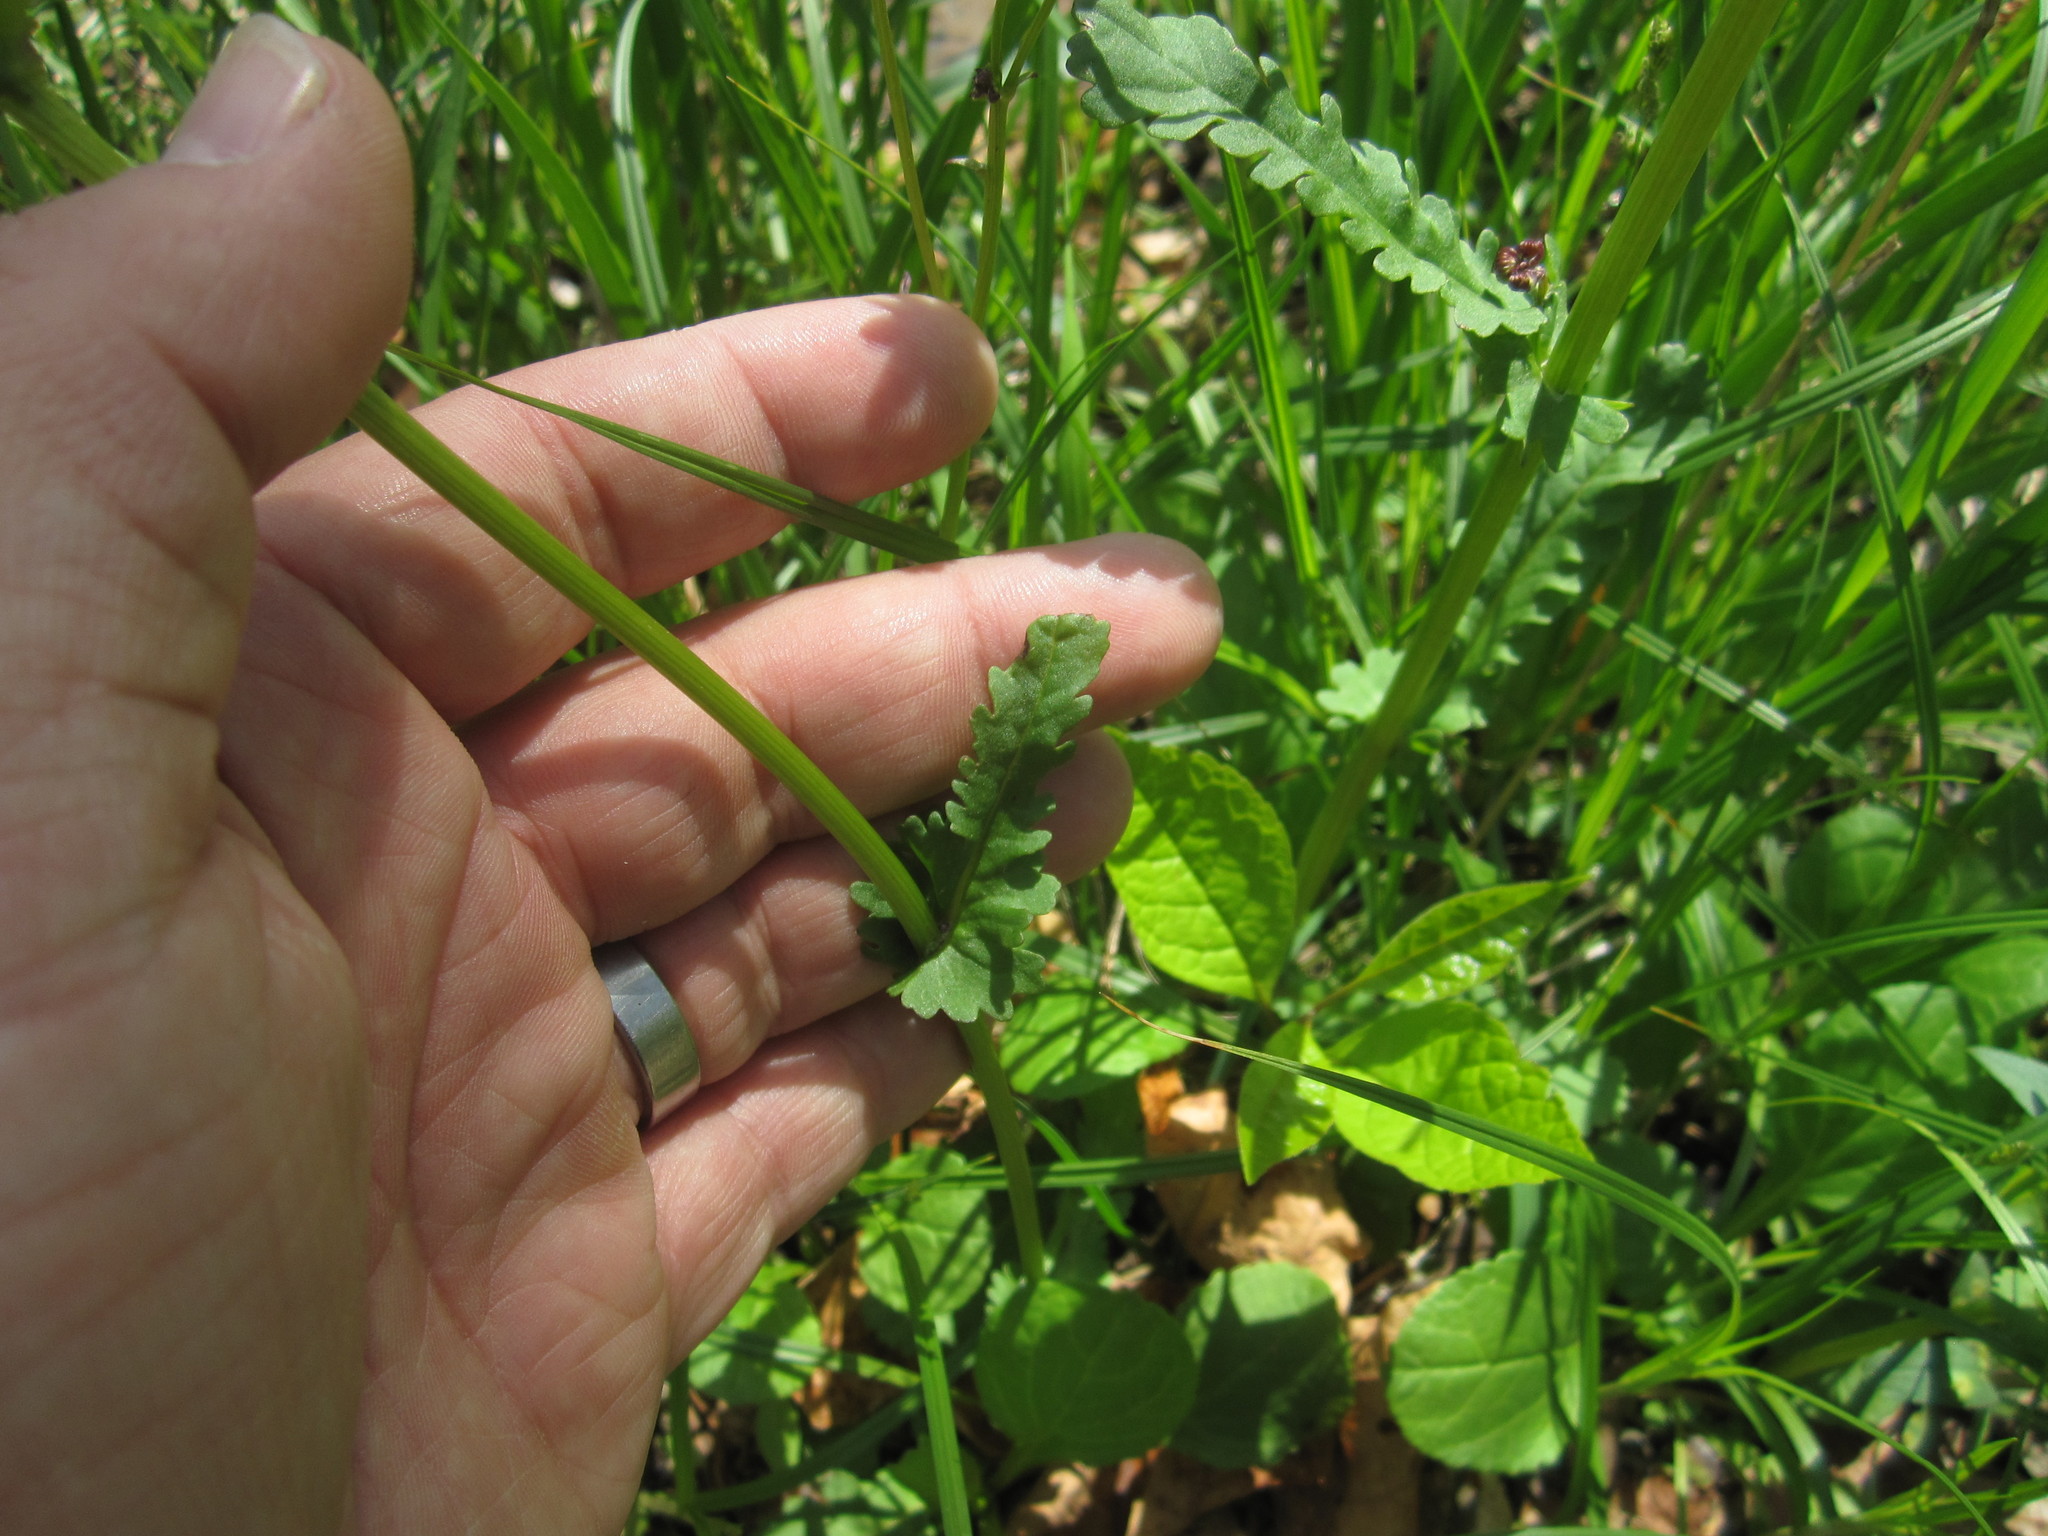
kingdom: Plantae
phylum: Tracheophyta
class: Magnoliopsida
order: Asterales
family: Asteraceae
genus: Packera
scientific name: Packera aurea
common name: Golden groundsel
